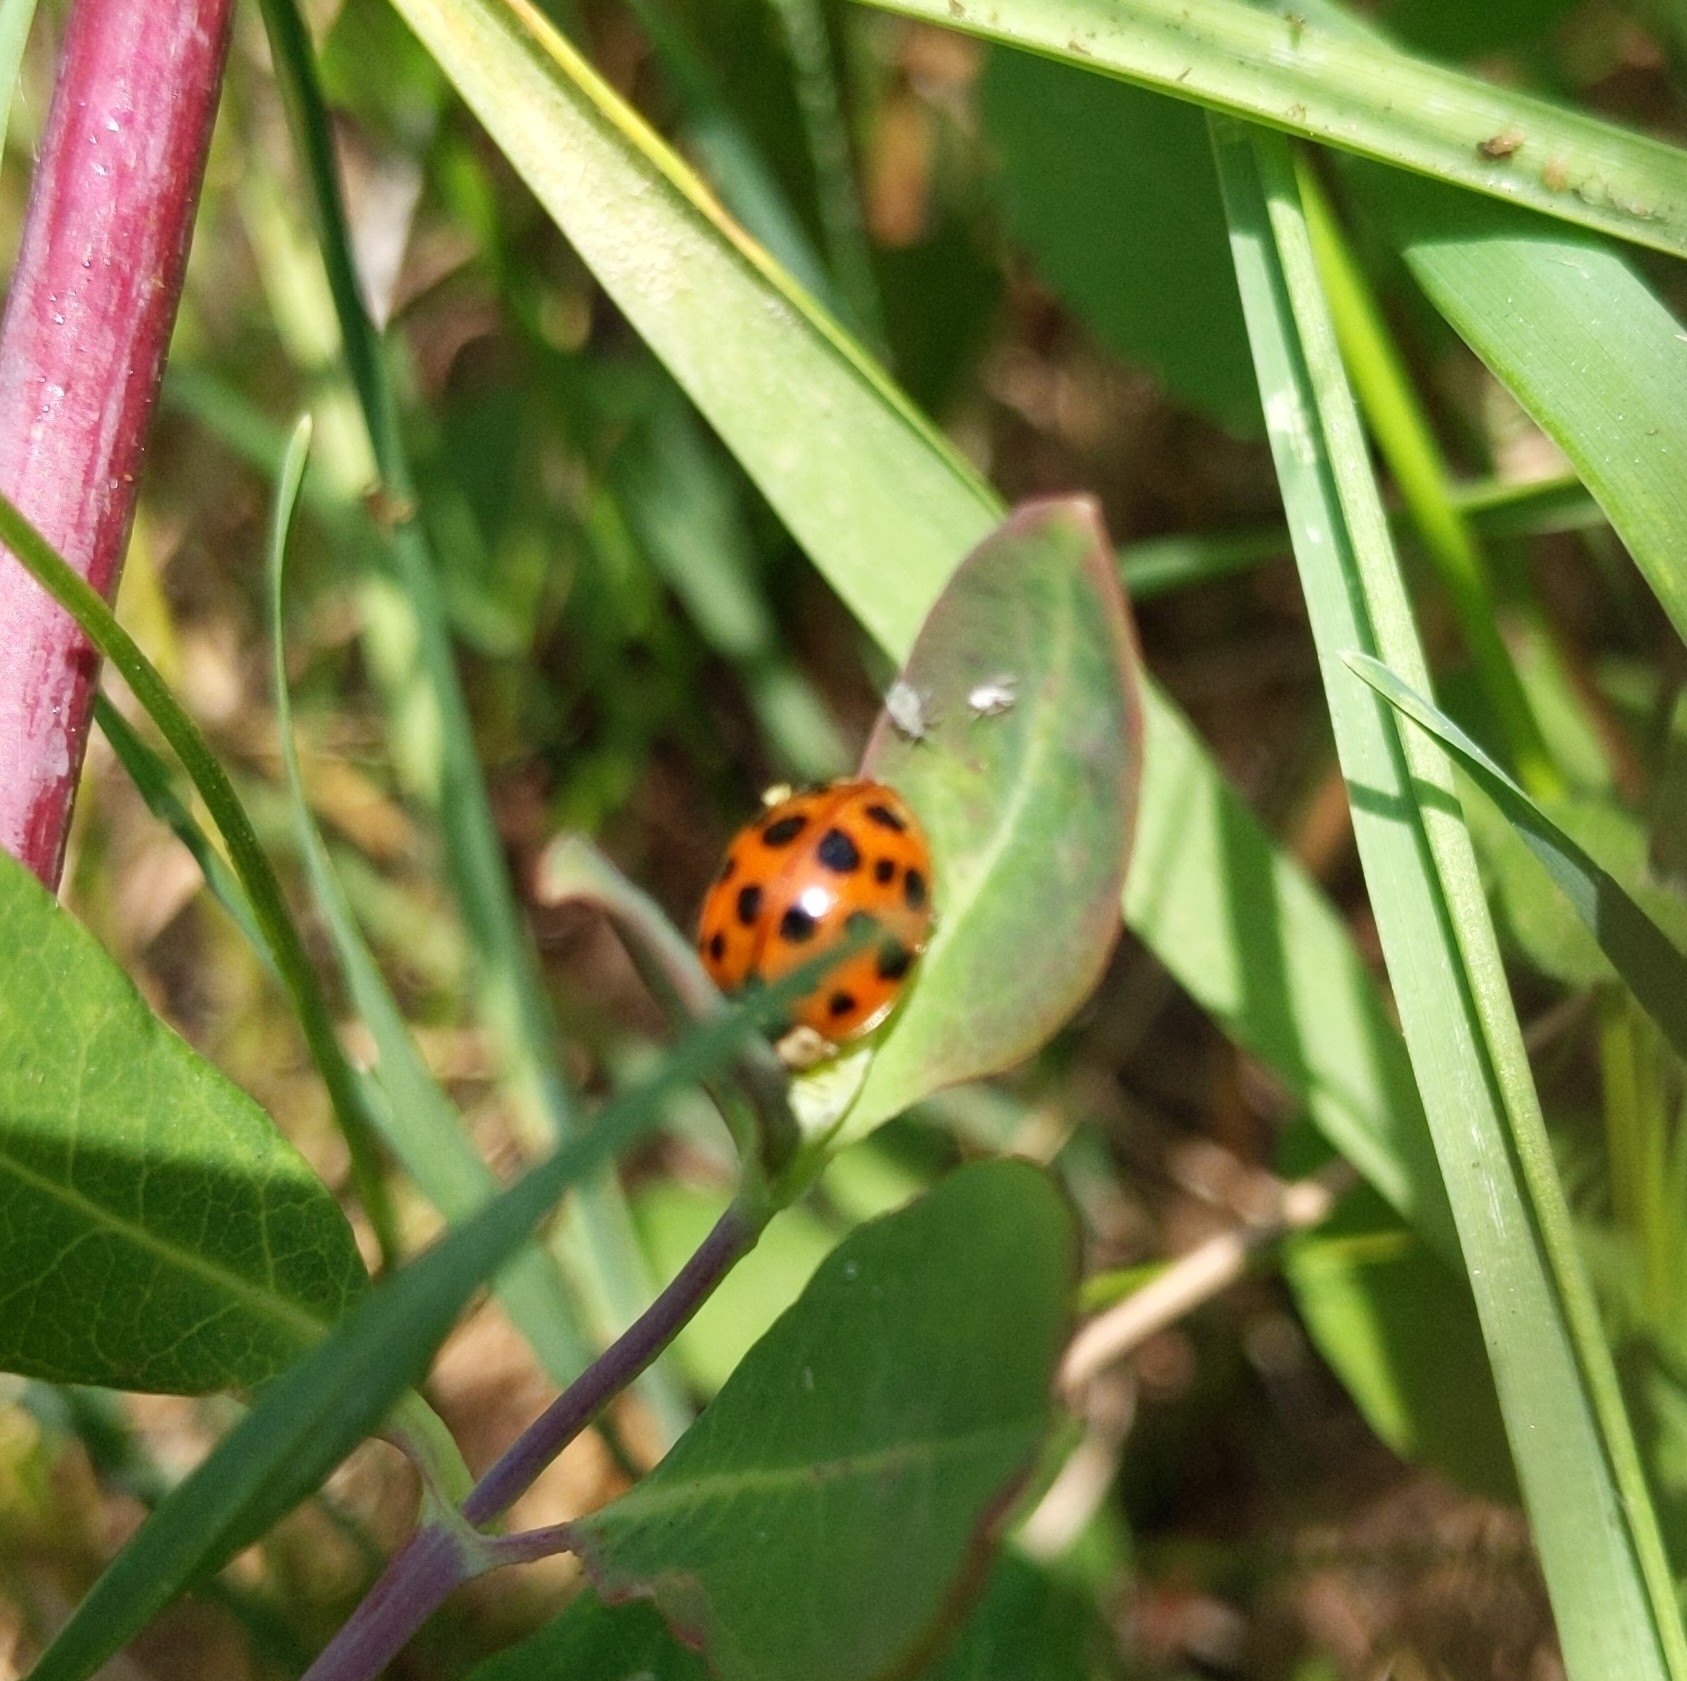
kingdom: Animalia
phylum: Arthropoda
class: Insecta
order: Coleoptera
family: Coccinellidae
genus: Harmonia
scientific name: Harmonia axyridis
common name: Harlequin ladybird
